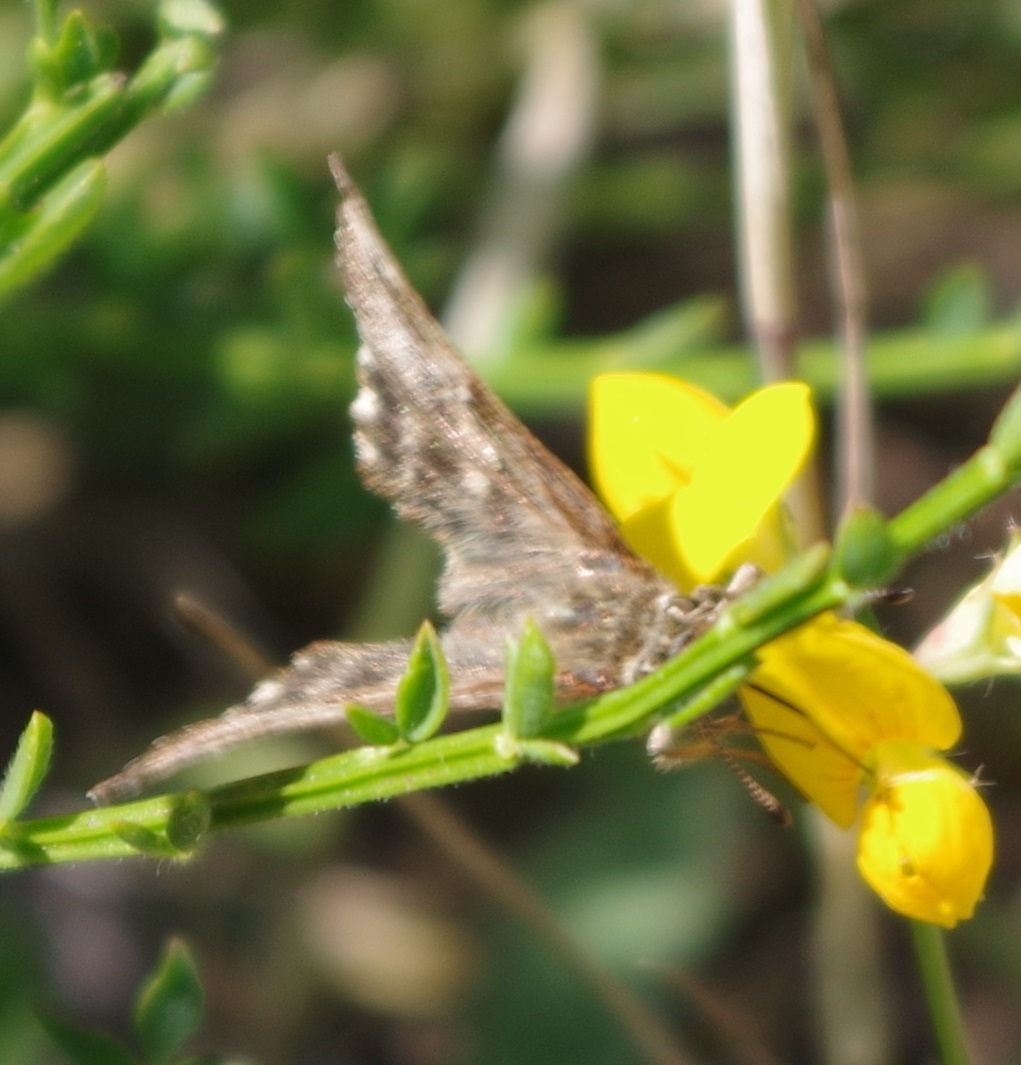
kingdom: Animalia
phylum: Arthropoda
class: Insecta
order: Lepidoptera
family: Hesperiidae
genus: Carcharodus
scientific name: Carcharodus alceae
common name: Mallow skipper
